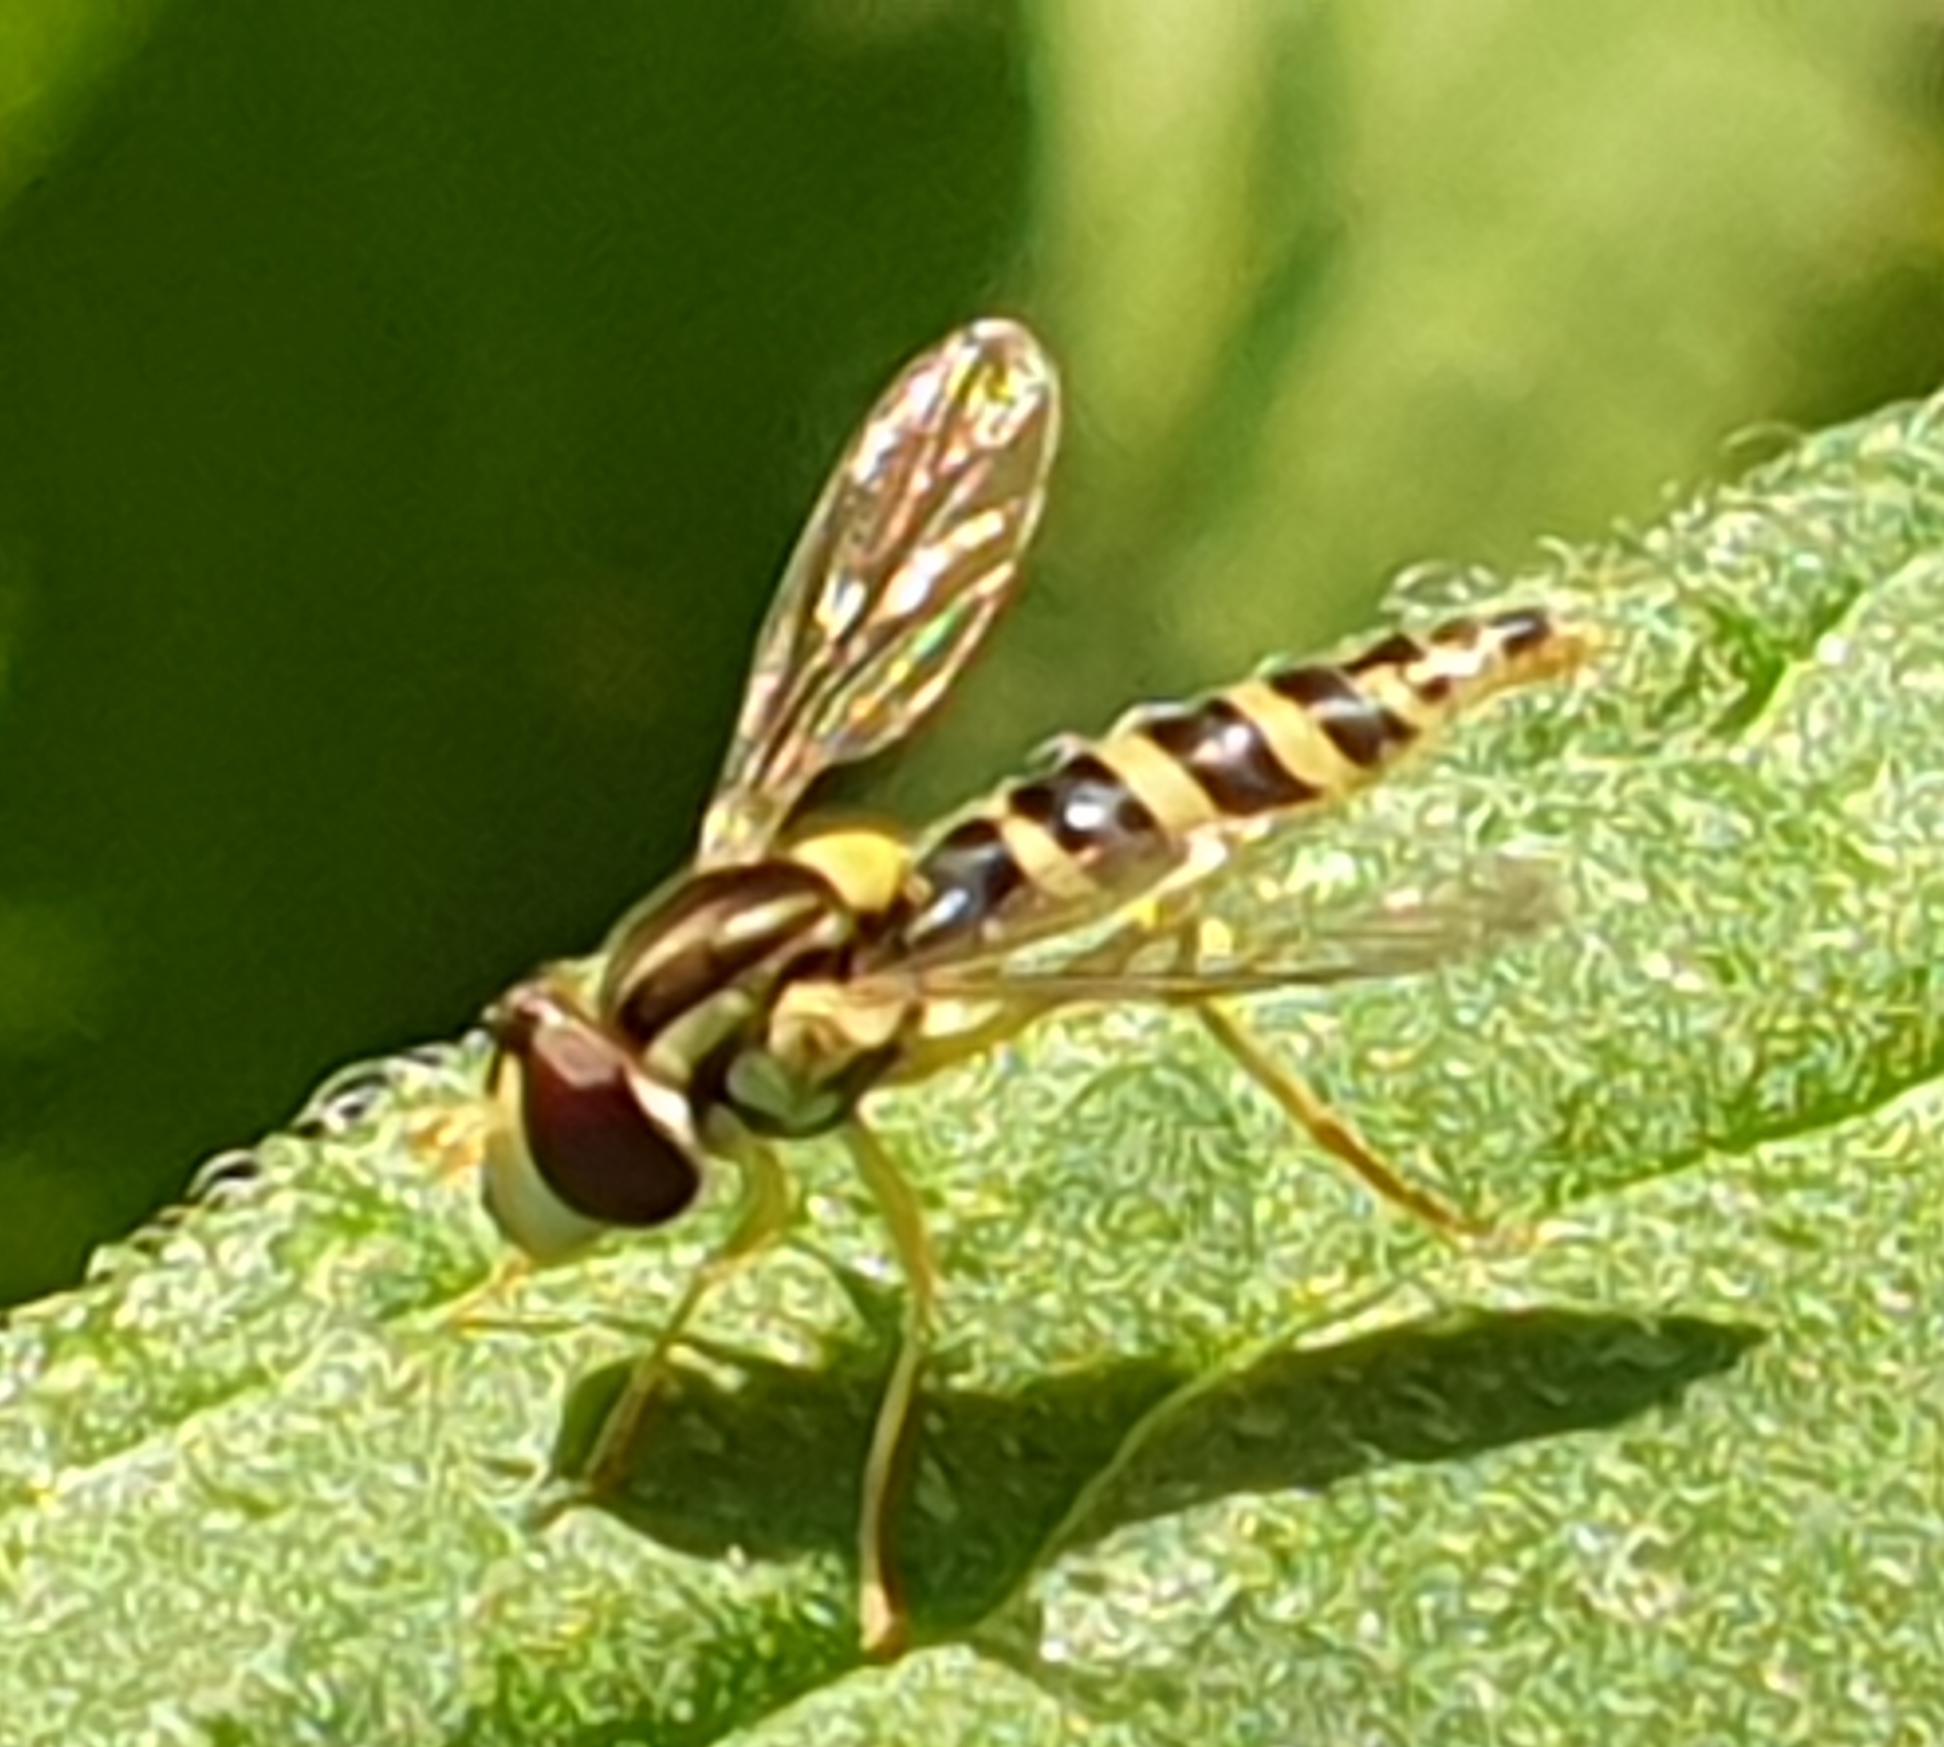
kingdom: Animalia
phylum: Arthropoda
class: Insecta
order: Diptera
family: Syrphidae
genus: Sphaerophoria
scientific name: Sphaerophoria
